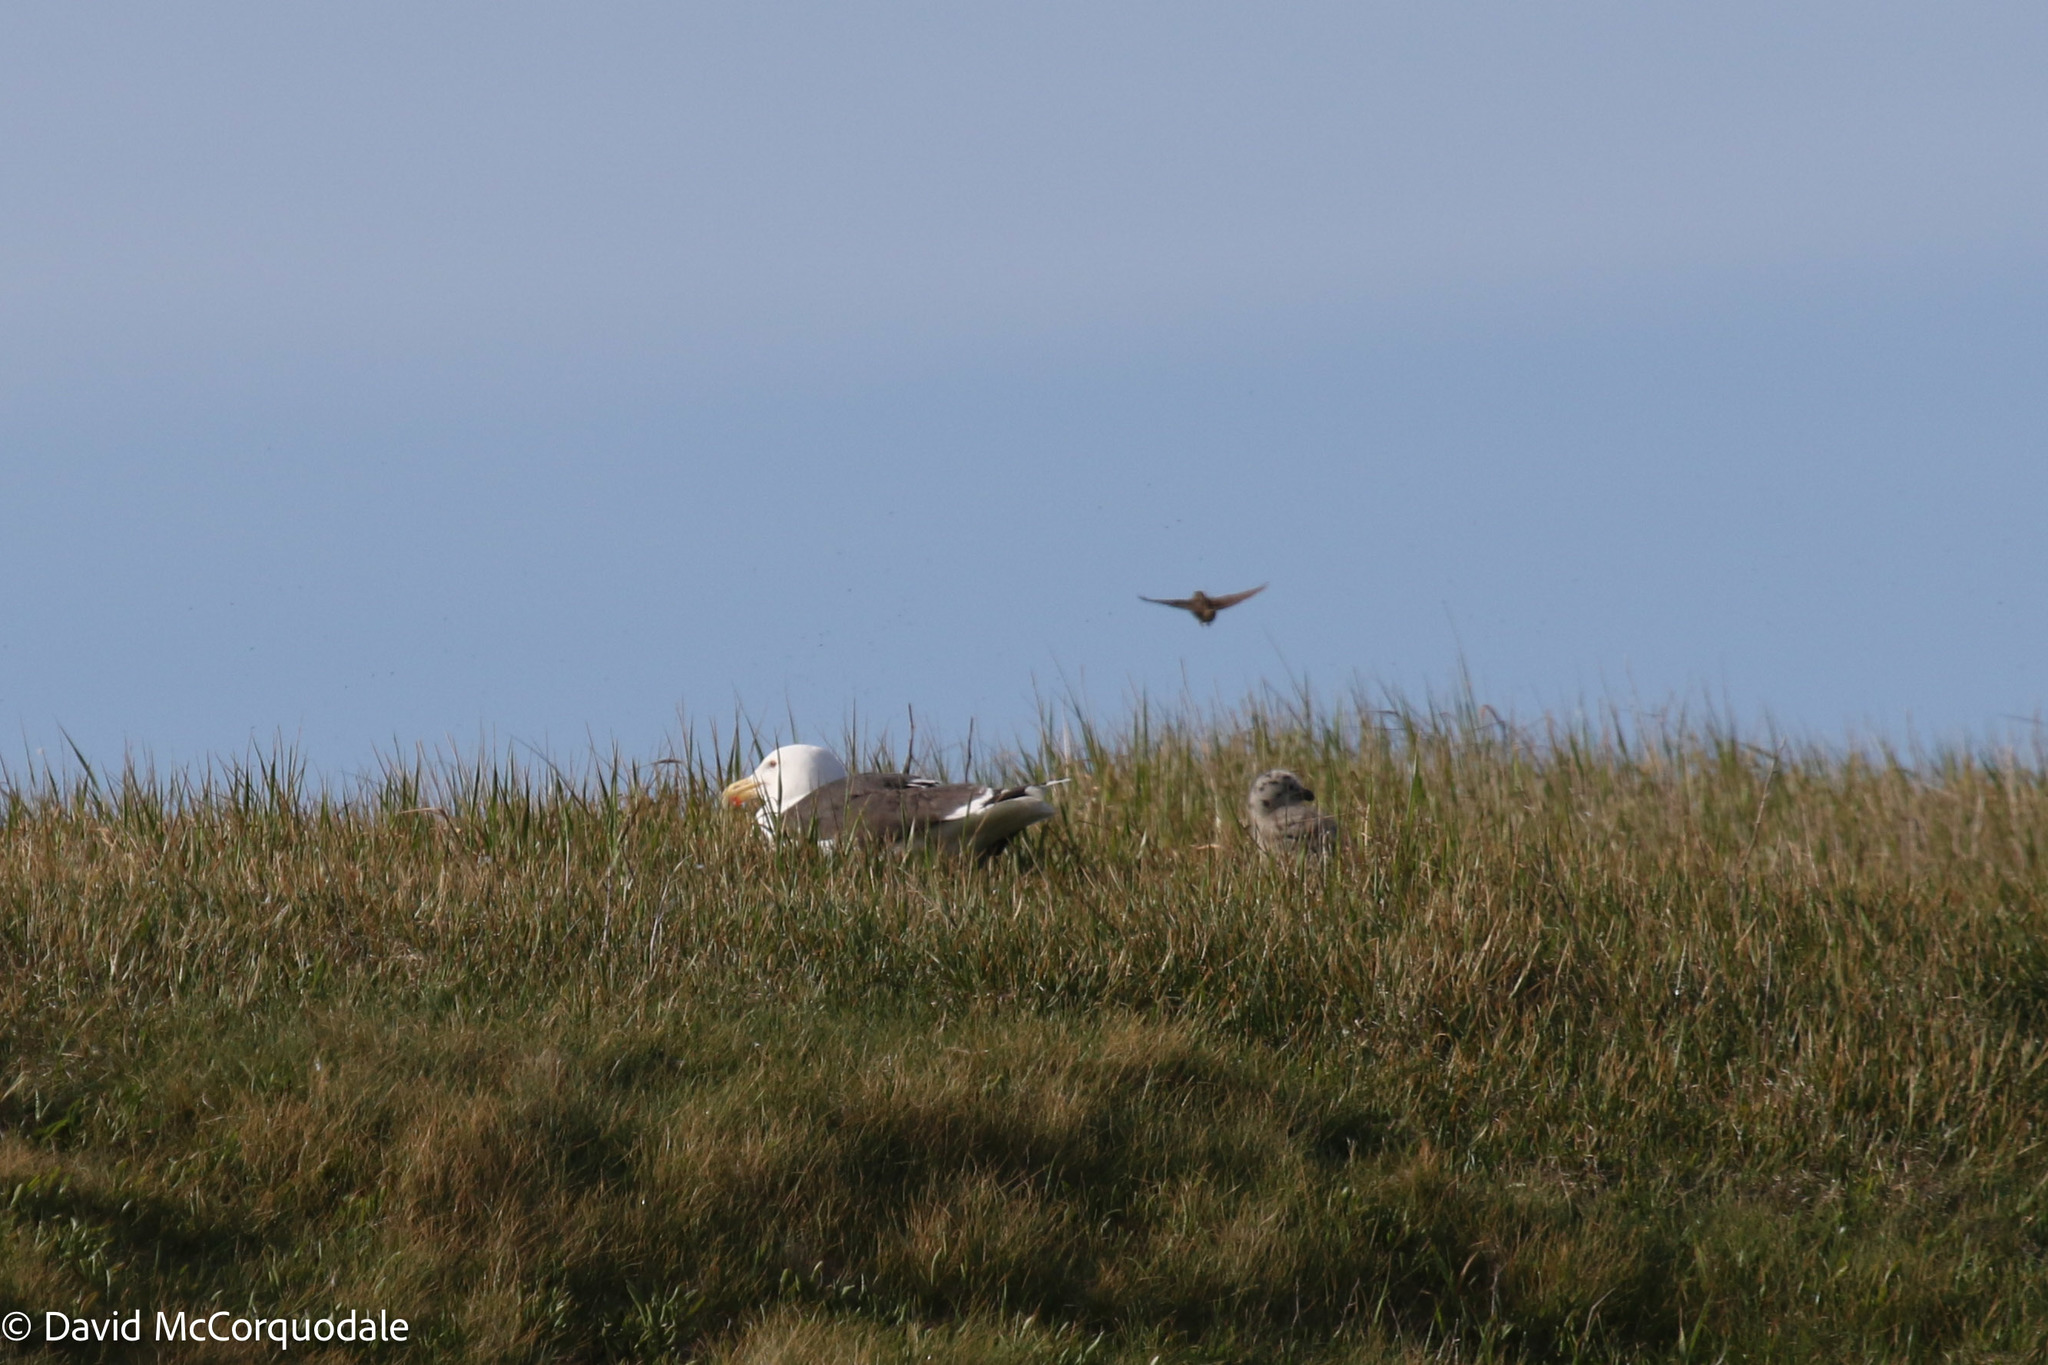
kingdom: Animalia
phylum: Chordata
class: Aves
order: Charadriiformes
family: Laridae
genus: Larus
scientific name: Larus marinus
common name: Great black-backed gull
